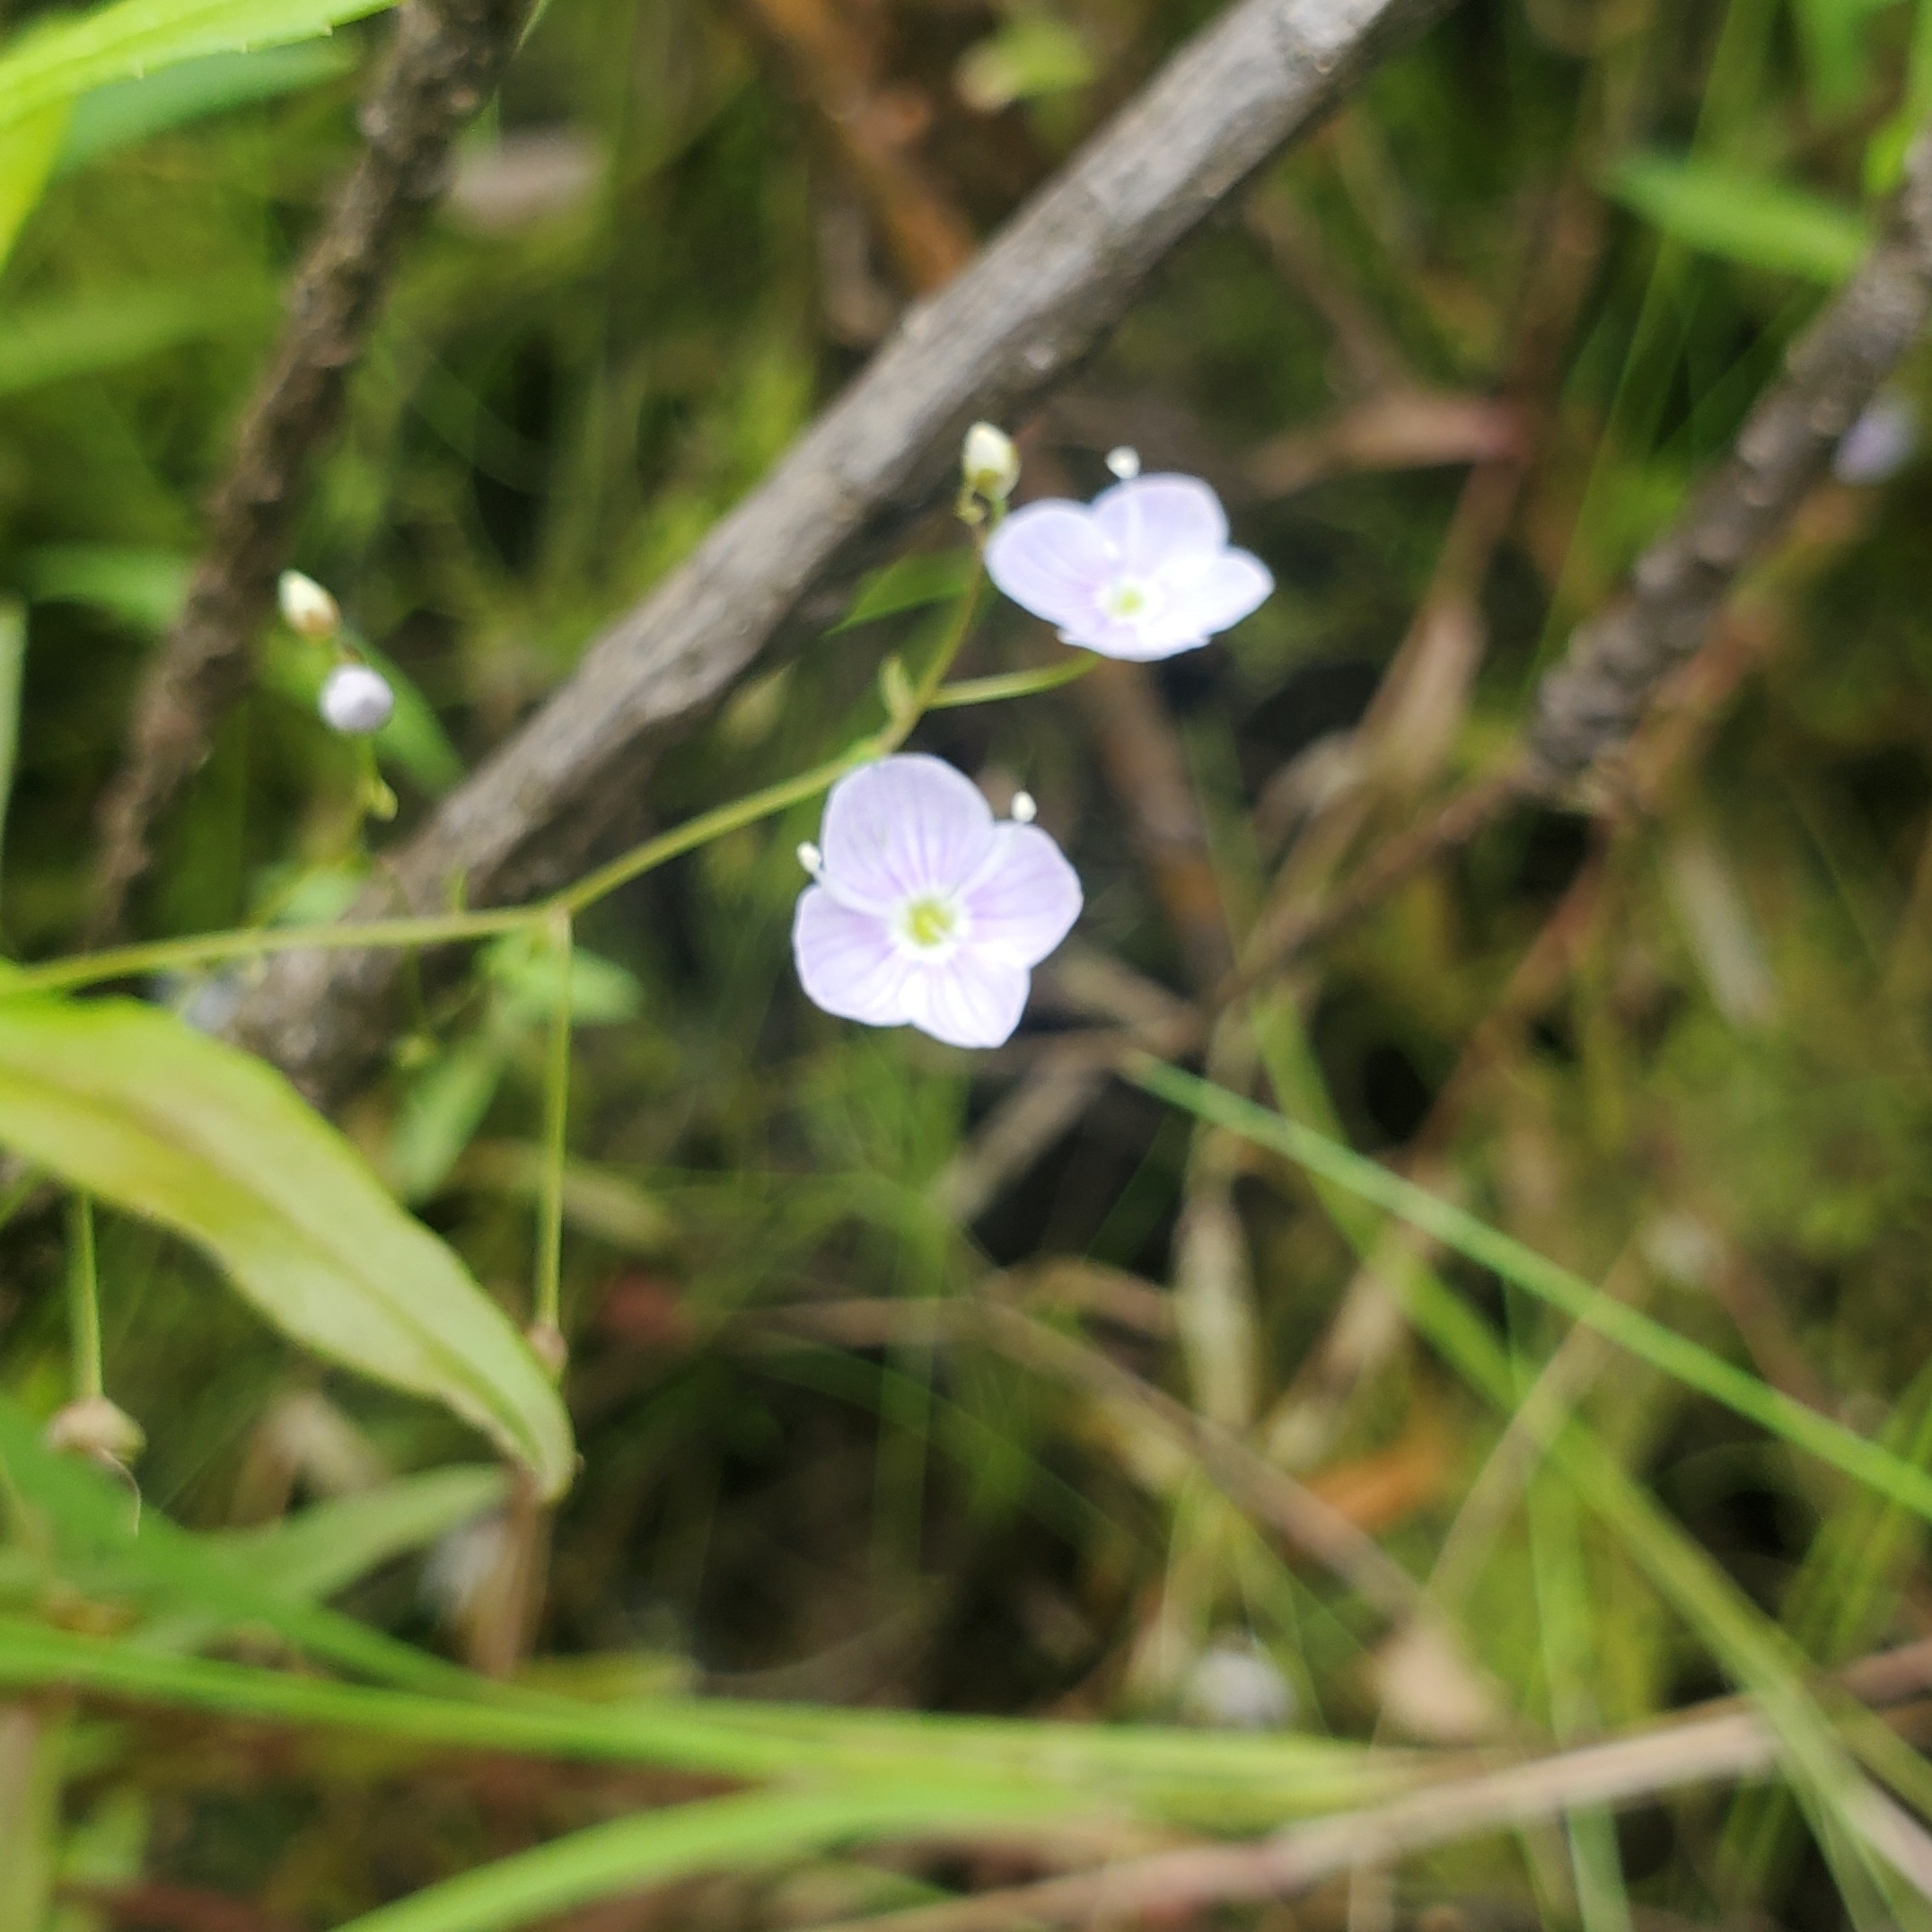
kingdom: Plantae
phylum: Tracheophyta
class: Magnoliopsida
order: Lamiales
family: Plantaginaceae
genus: Veronica
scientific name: Veronica scutellata
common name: Marsh speedwell
